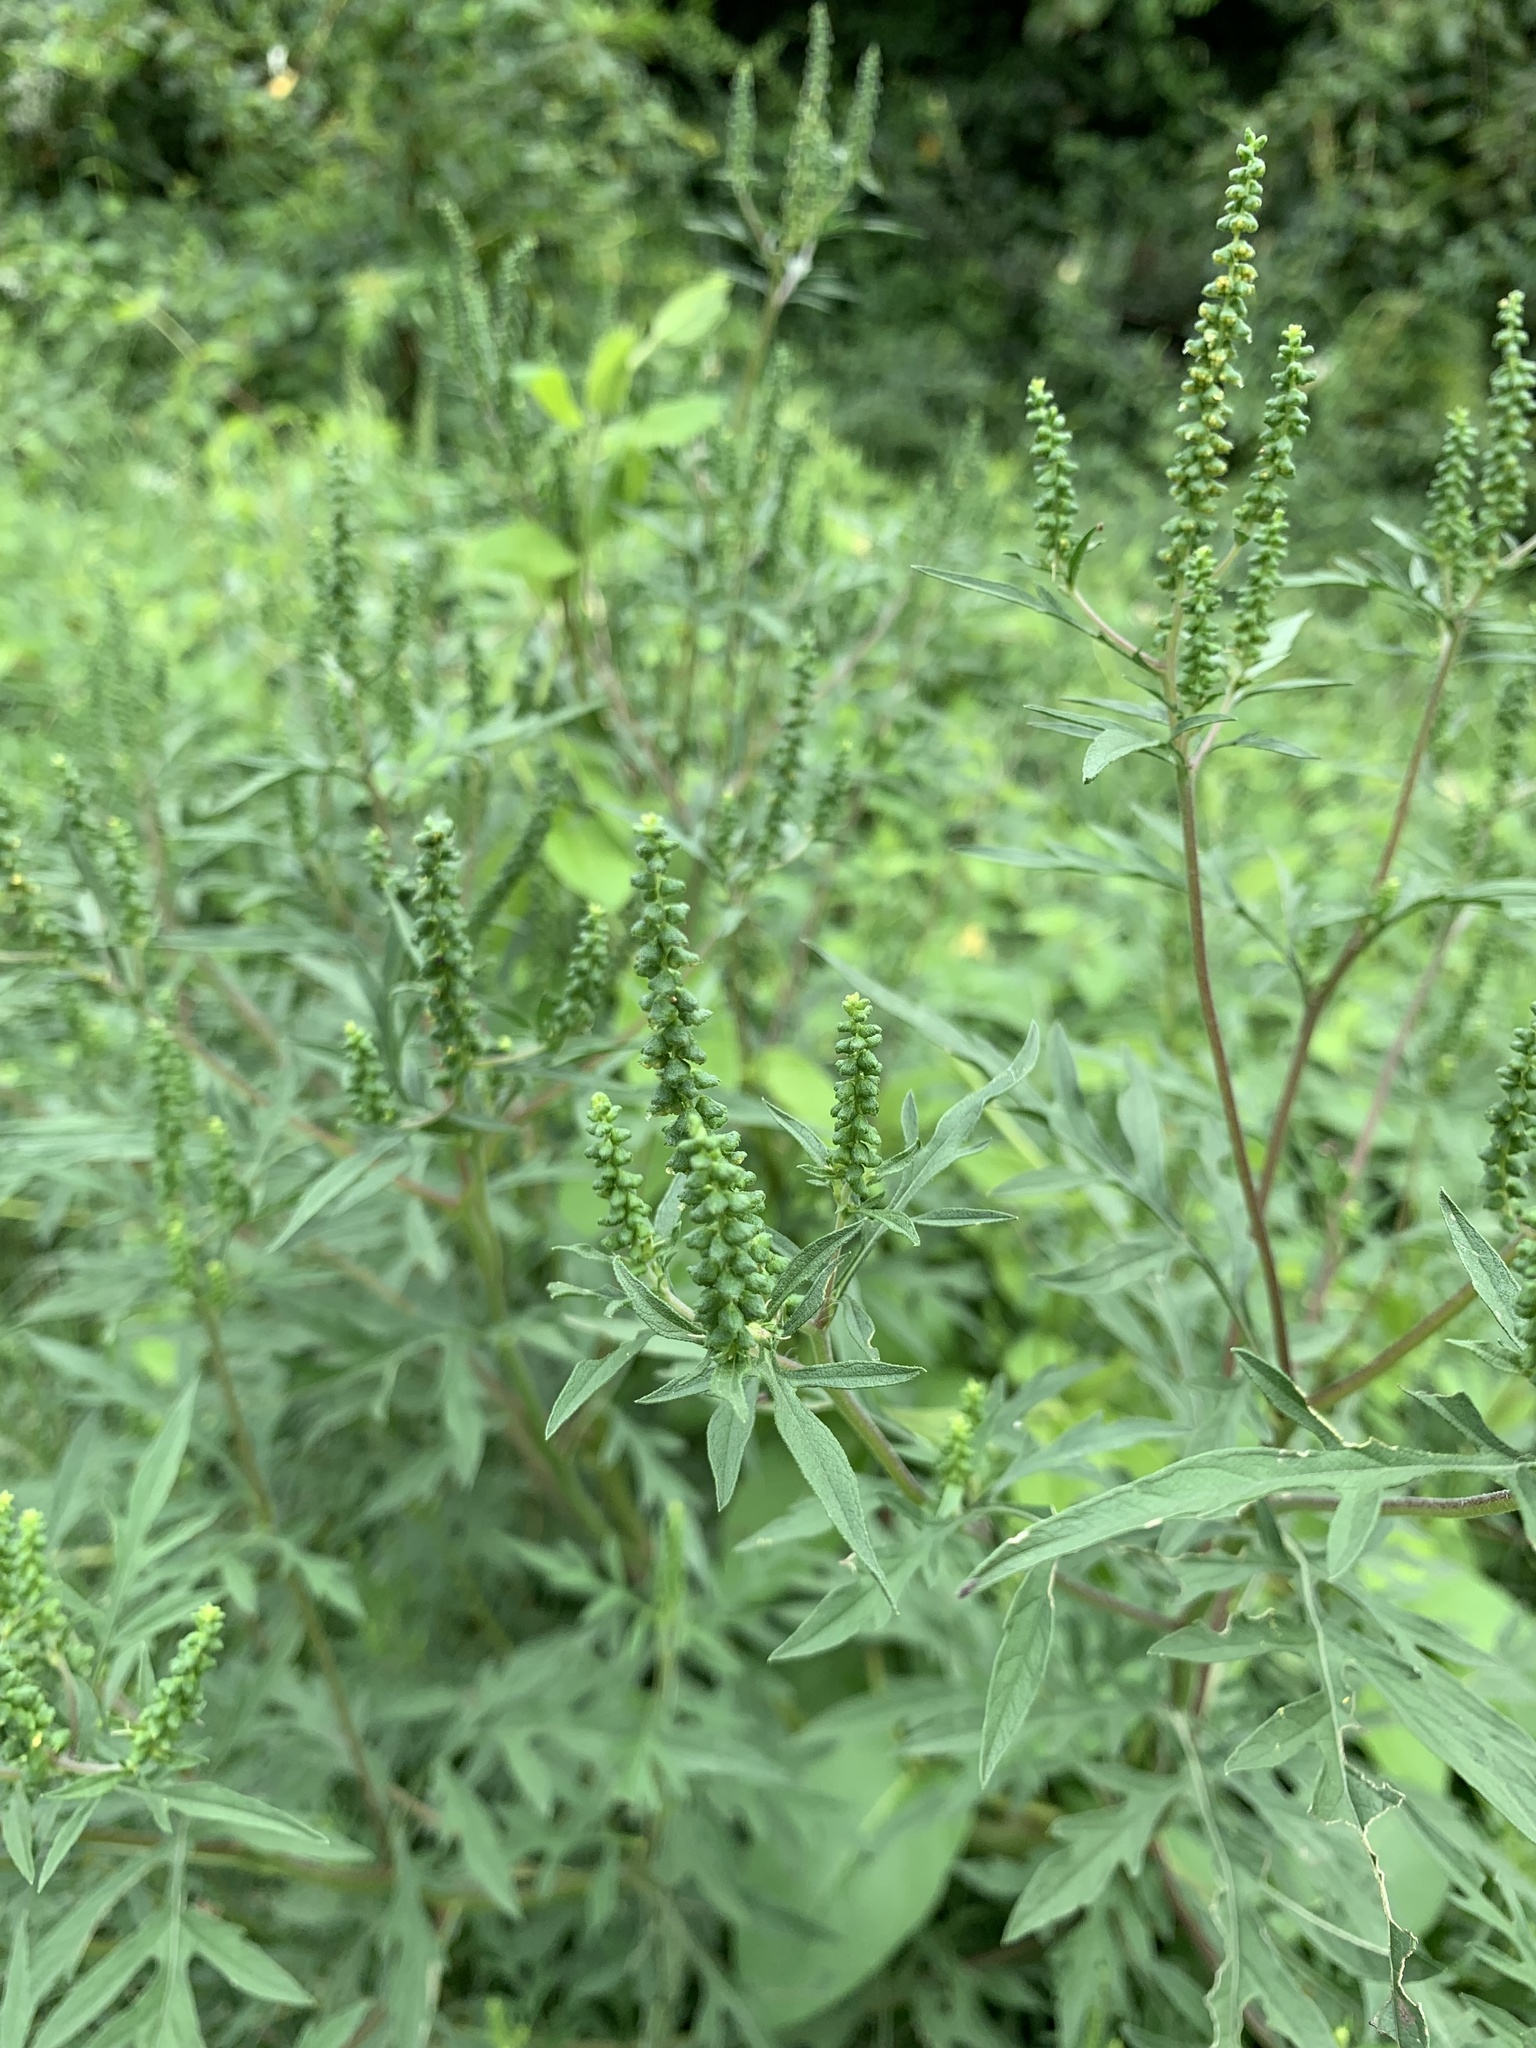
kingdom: Plantae
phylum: Tracheophyta
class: Magnoliopsida
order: Asterales
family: Asteraceae
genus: Ambrosia
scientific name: Ambrosia artemisiifolia
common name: Annual ragweed
